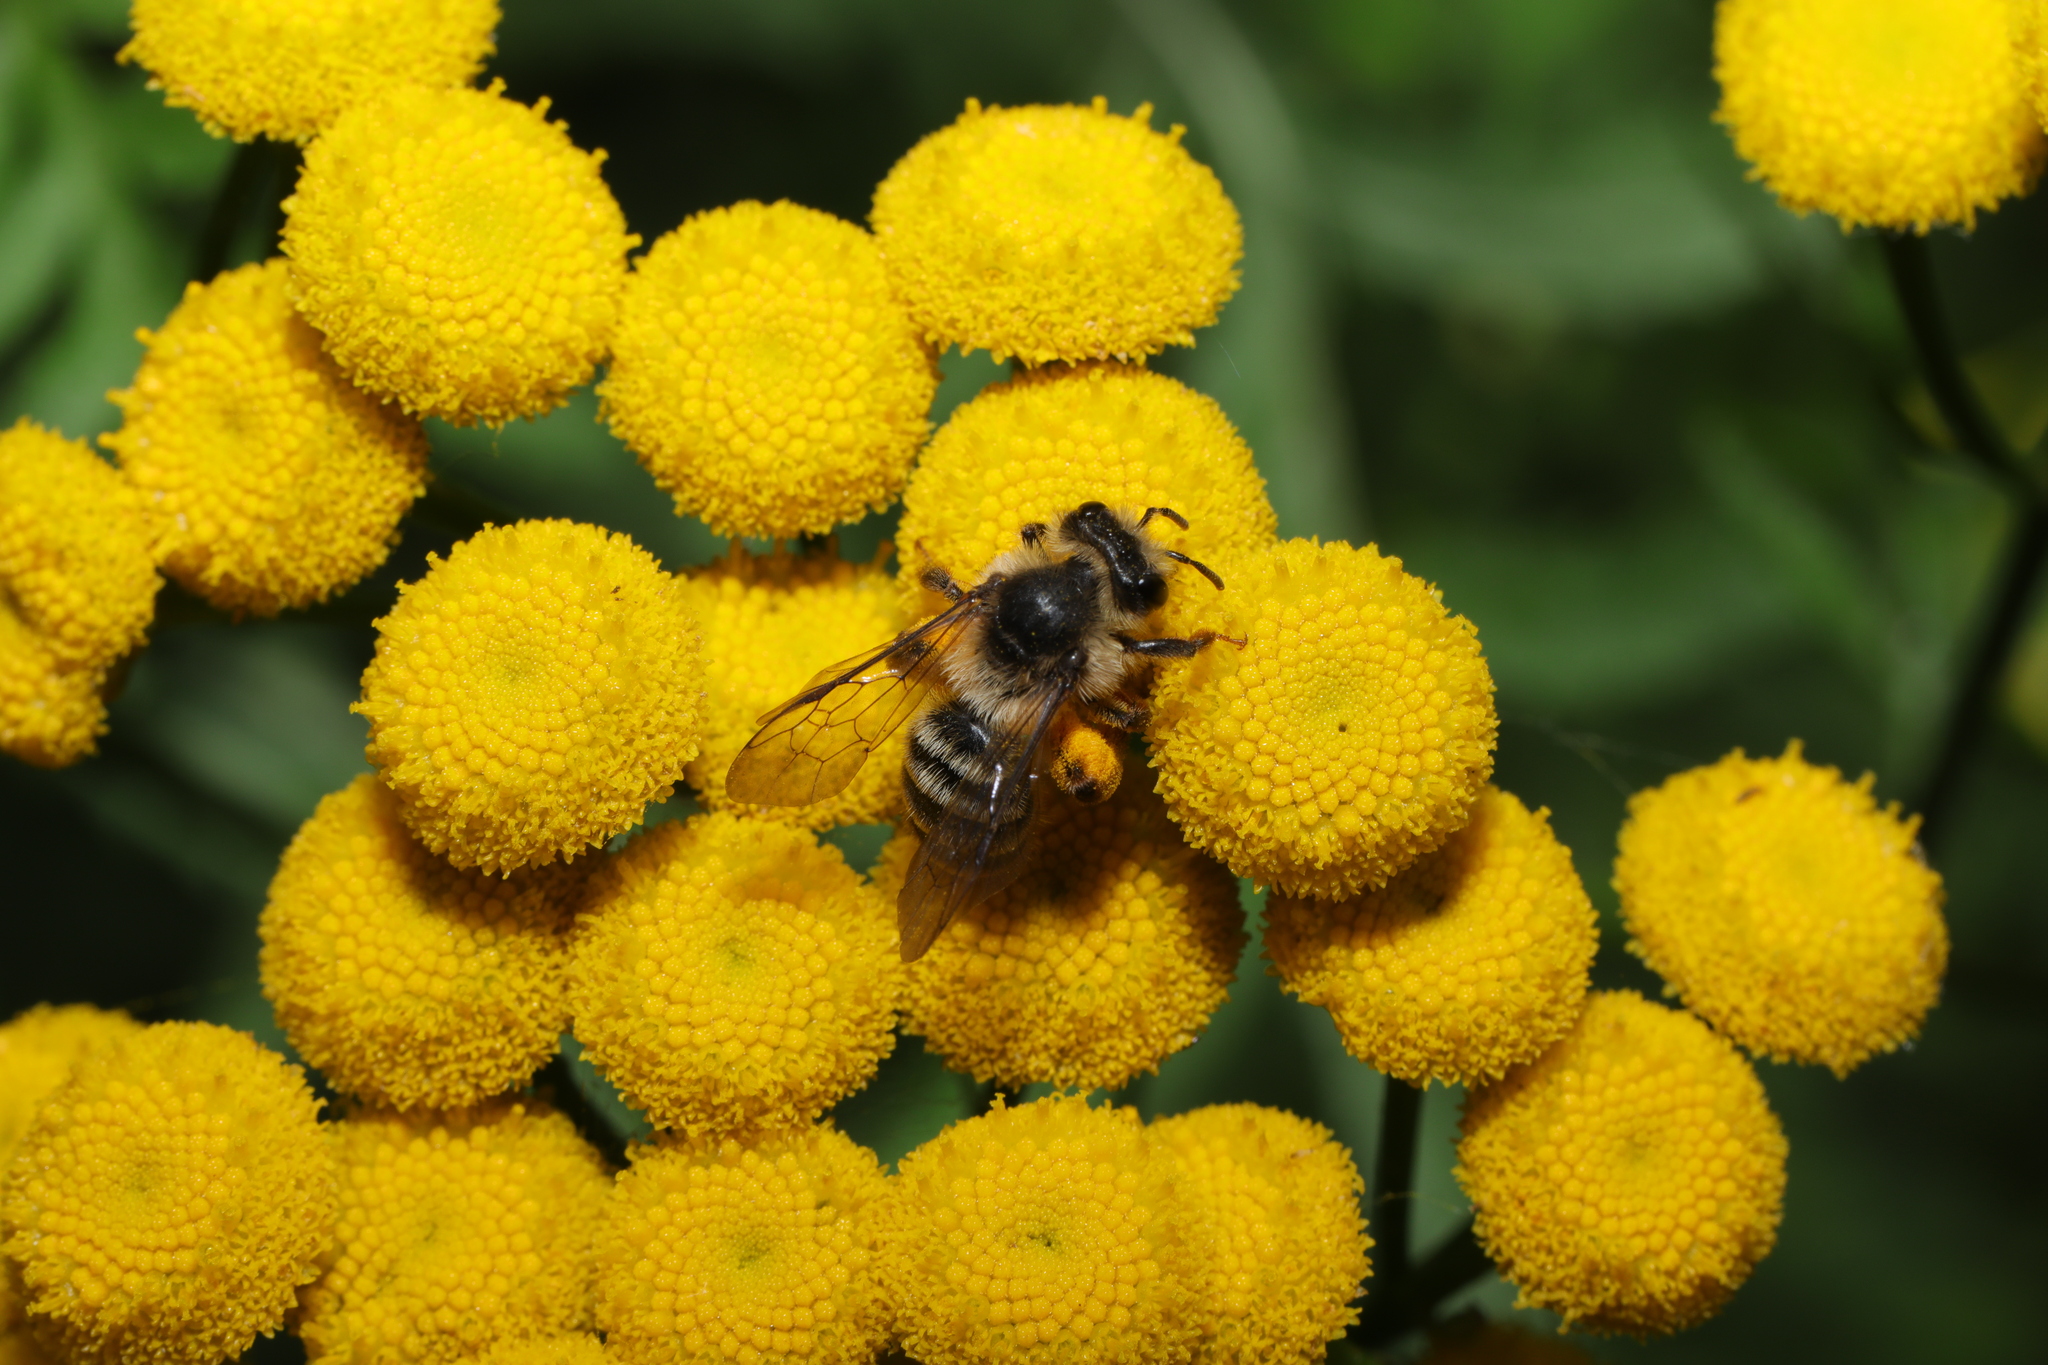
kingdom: Animalia
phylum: Arthropoda
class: Insecta
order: Hymenoptera
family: Andrenidae
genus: Andrena
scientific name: Andrena denticulata
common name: Grey-banded mining bee
